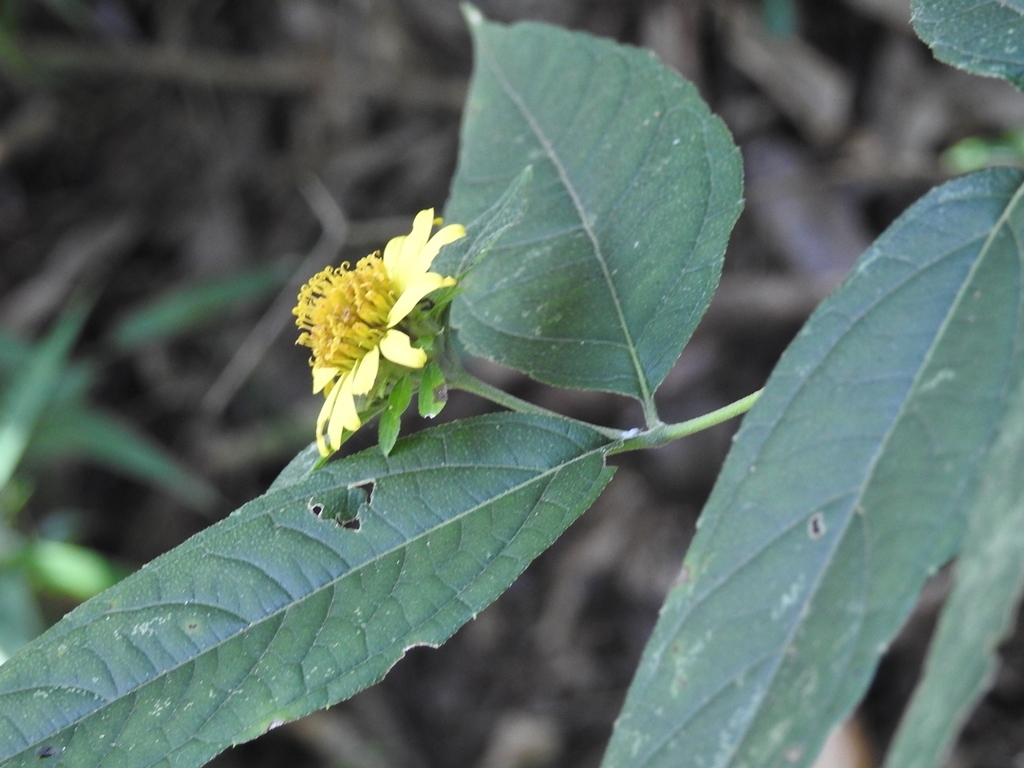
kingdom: Plantae
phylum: Tracheophyta
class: Magnoliopsida
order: Asterales
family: Asteraceae
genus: Lundellianthus
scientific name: Lundellianthus breedlovei
